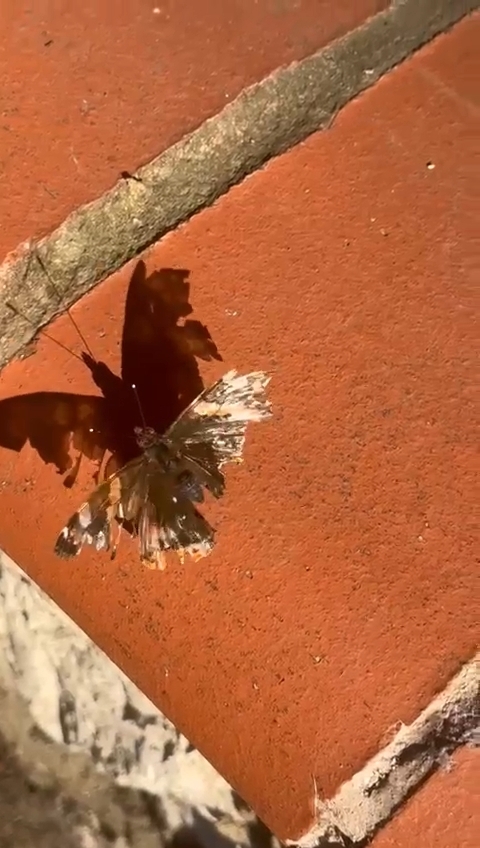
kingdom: Animalia
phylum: Arthropoda
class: Insecta
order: Lepidoptera
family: Nymphalidae
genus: Vanessa
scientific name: Vanessa atalanta
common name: Red admiral
